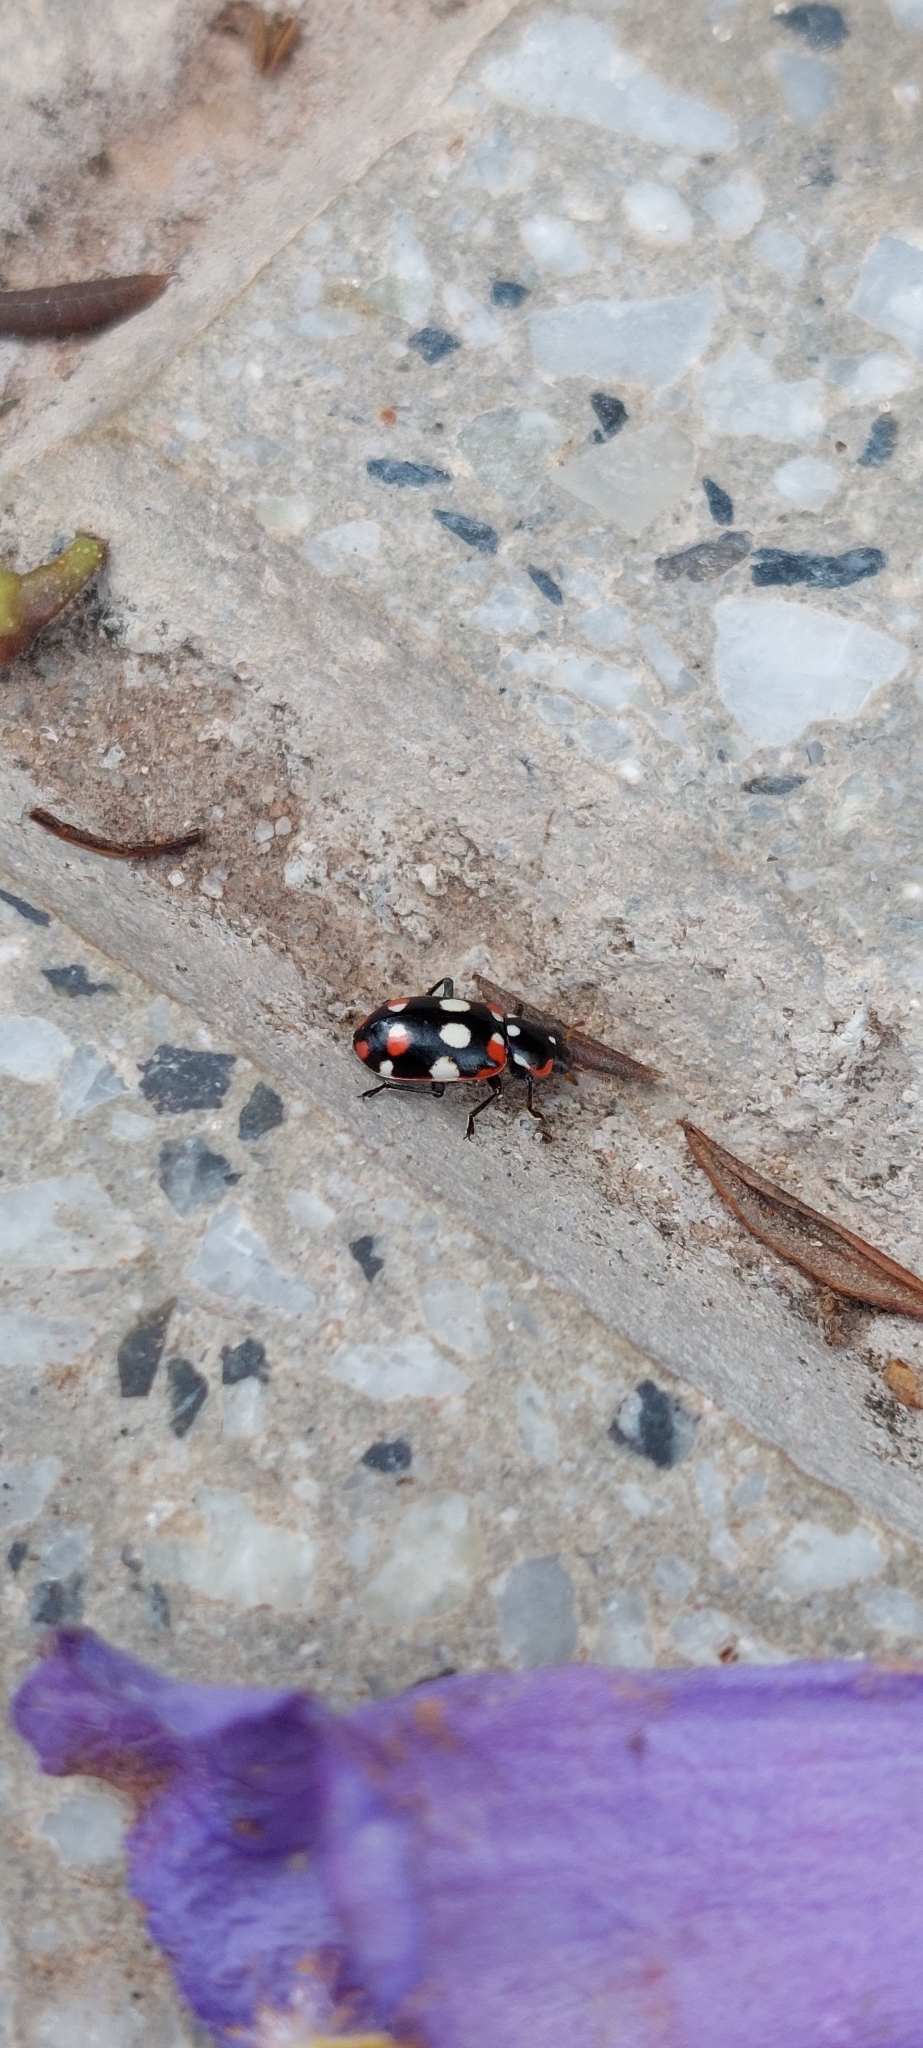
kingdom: Animalia
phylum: Arthropoda
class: Insecta
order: Coleoptera
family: Coccinellidae
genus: Eriopis
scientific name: Eriopis connexa
